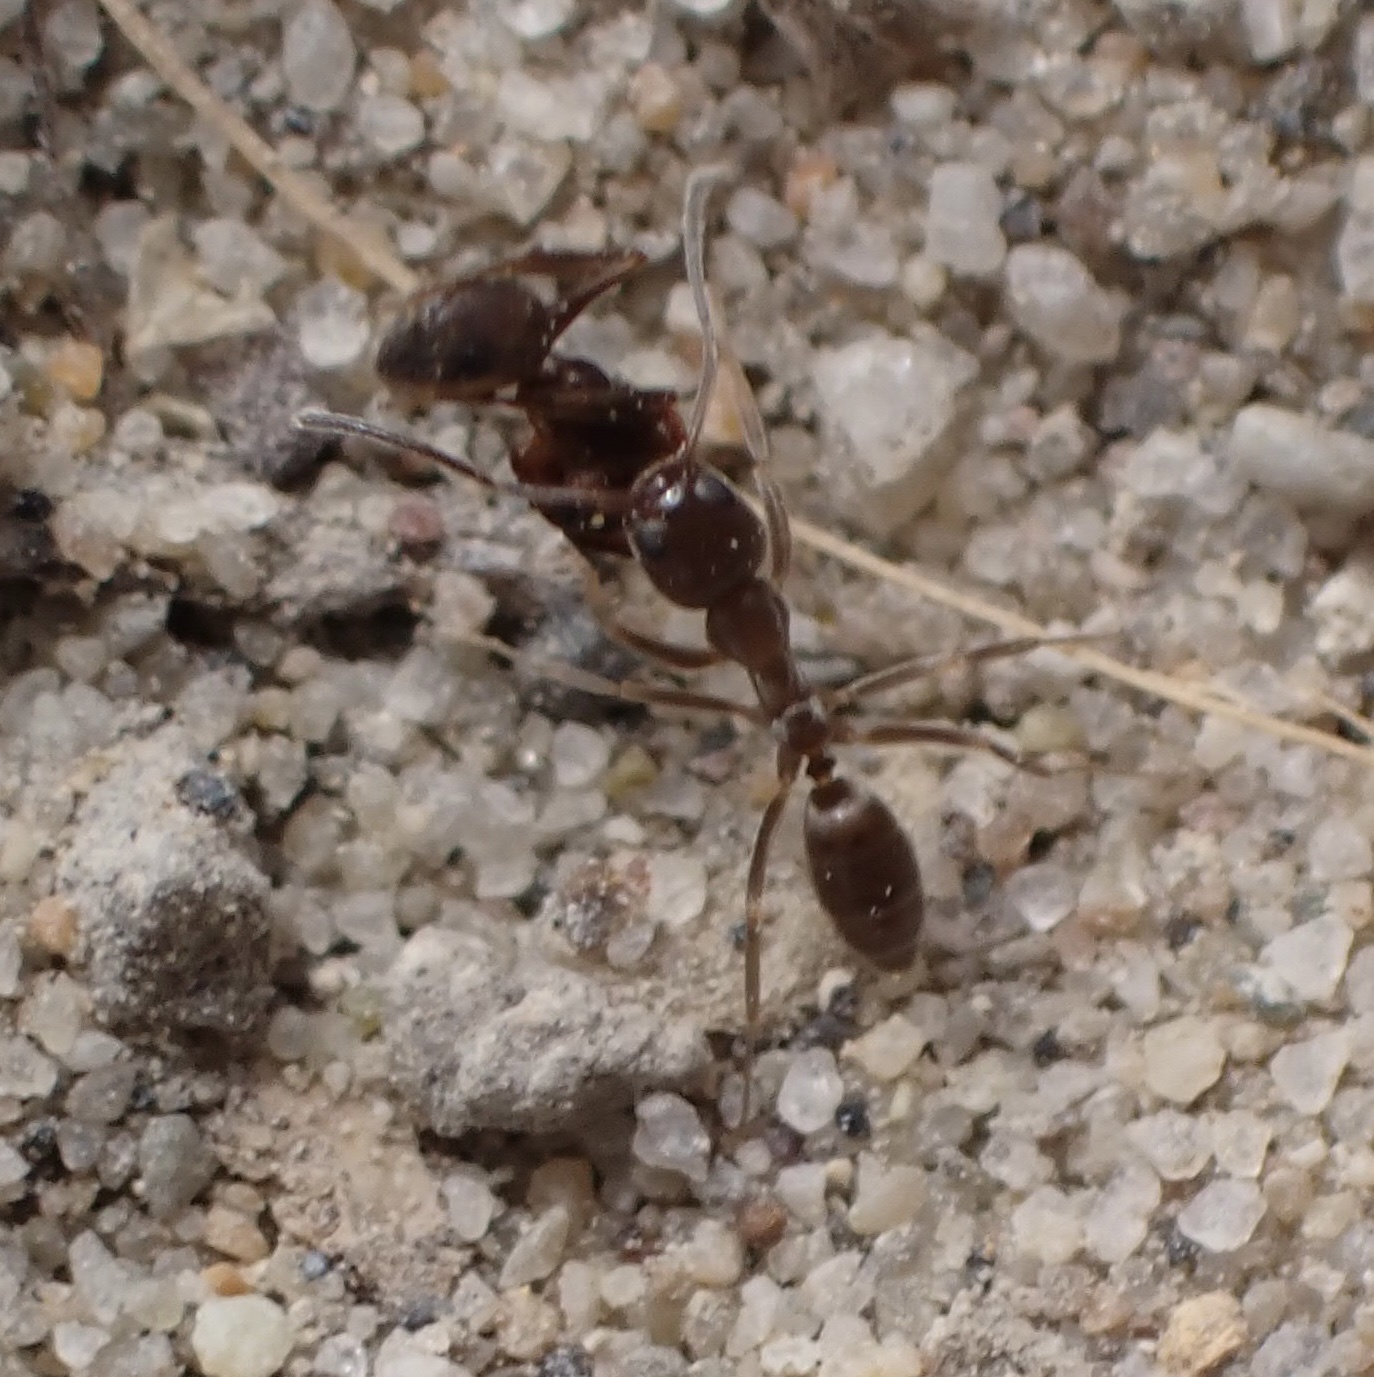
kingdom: Animalia
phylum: Arthropoda
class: Insecta
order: Hymenoptera
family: Formicidae
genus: Linepithema
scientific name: Linepithema humile
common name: Argentine ant
